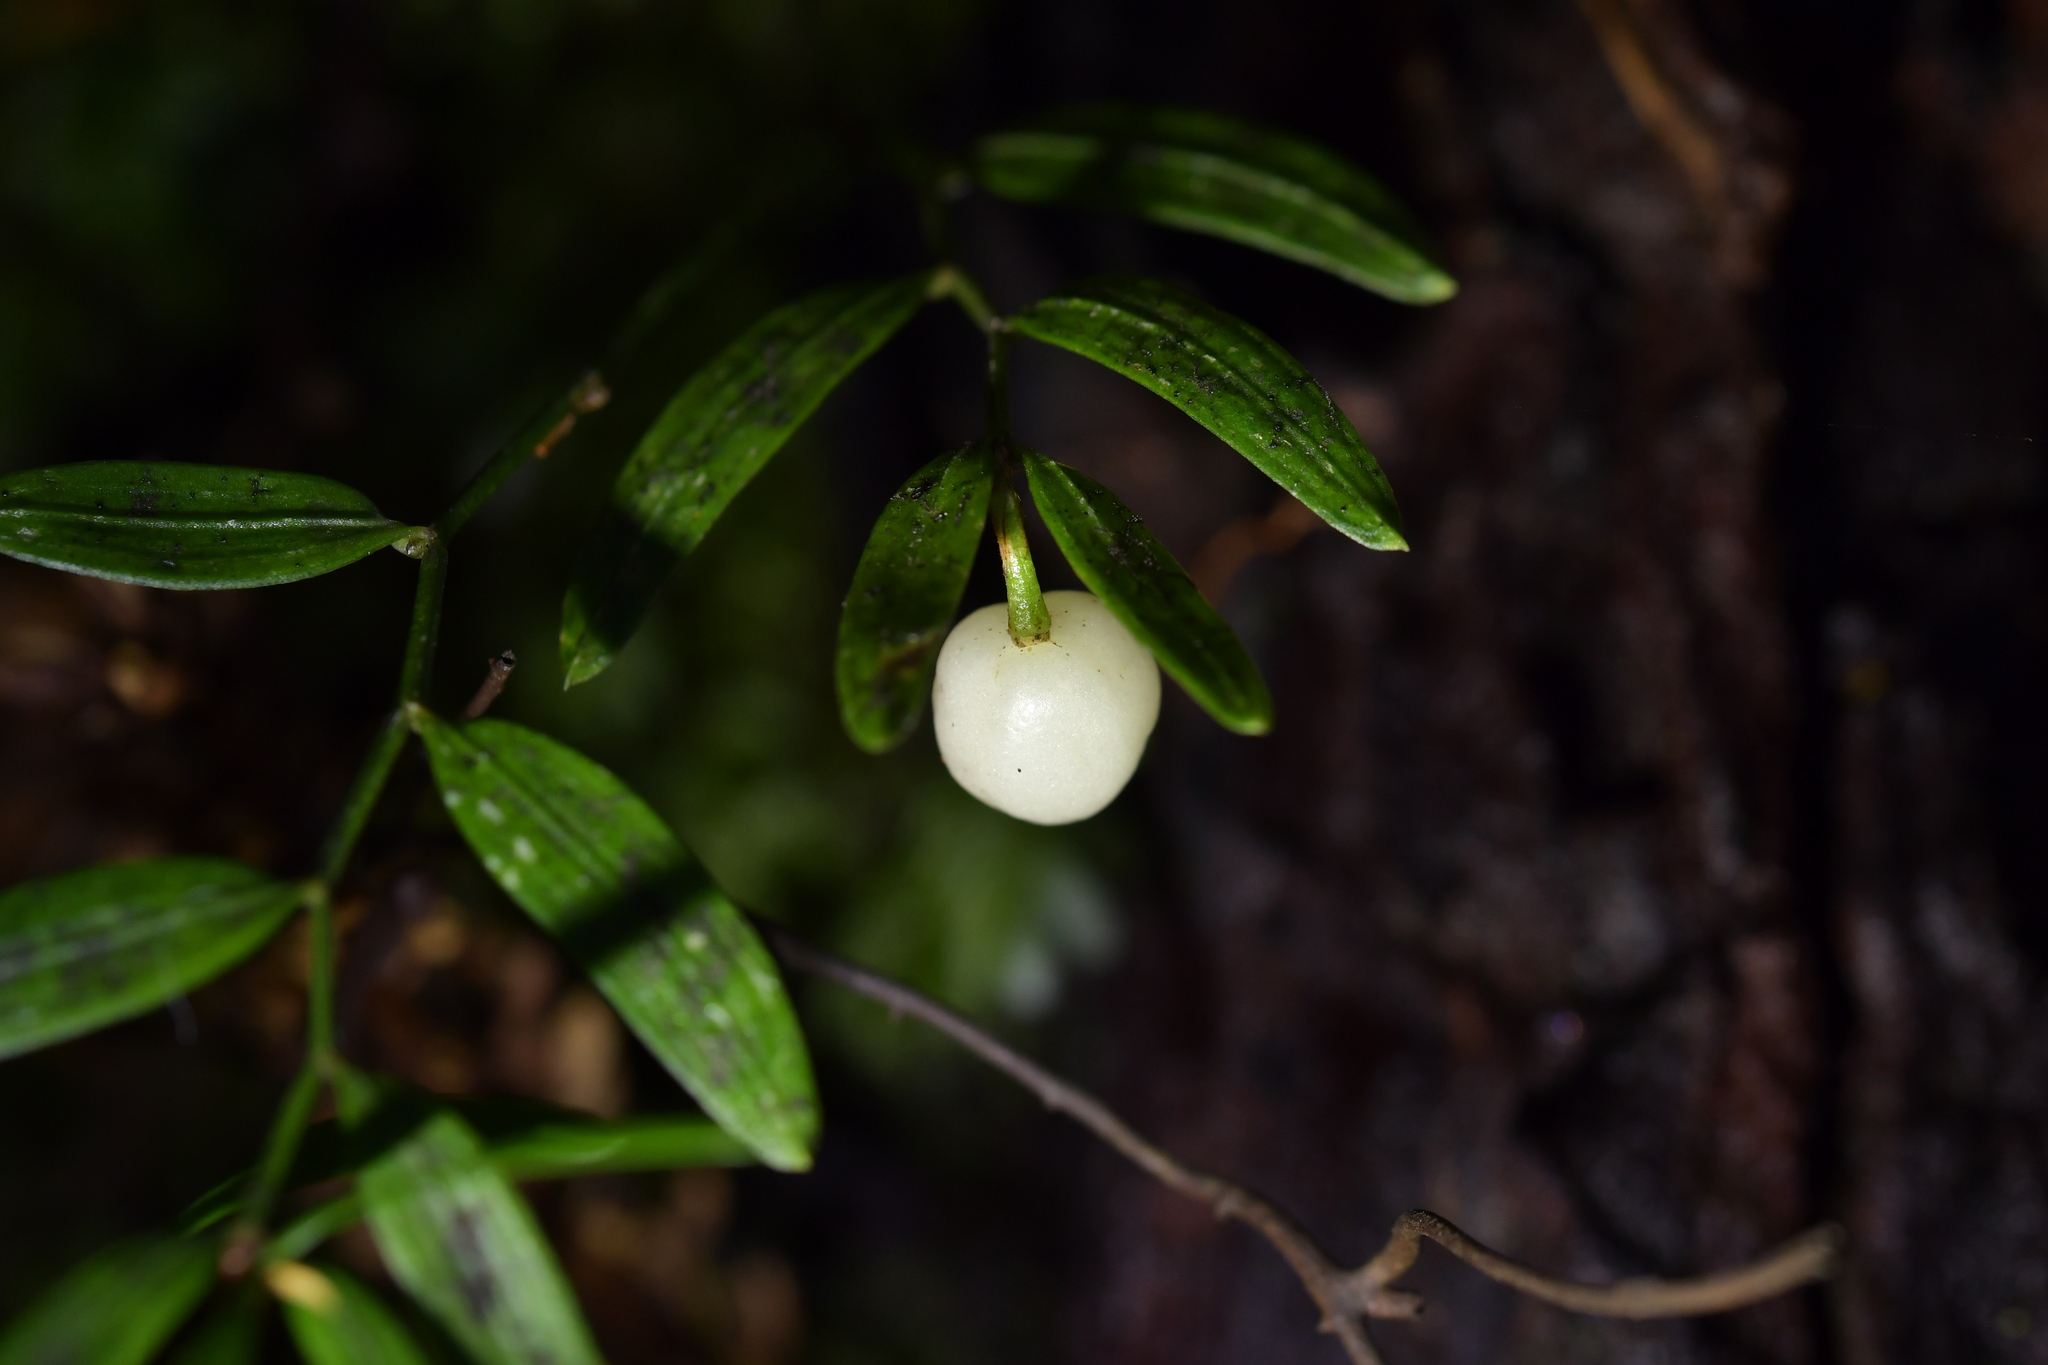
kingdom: Plantae
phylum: Tracheophyta
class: Liliopsida
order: Liliales
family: Alstroemeriaceae
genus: Luzuriaga
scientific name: Luzuriaga parviflora
